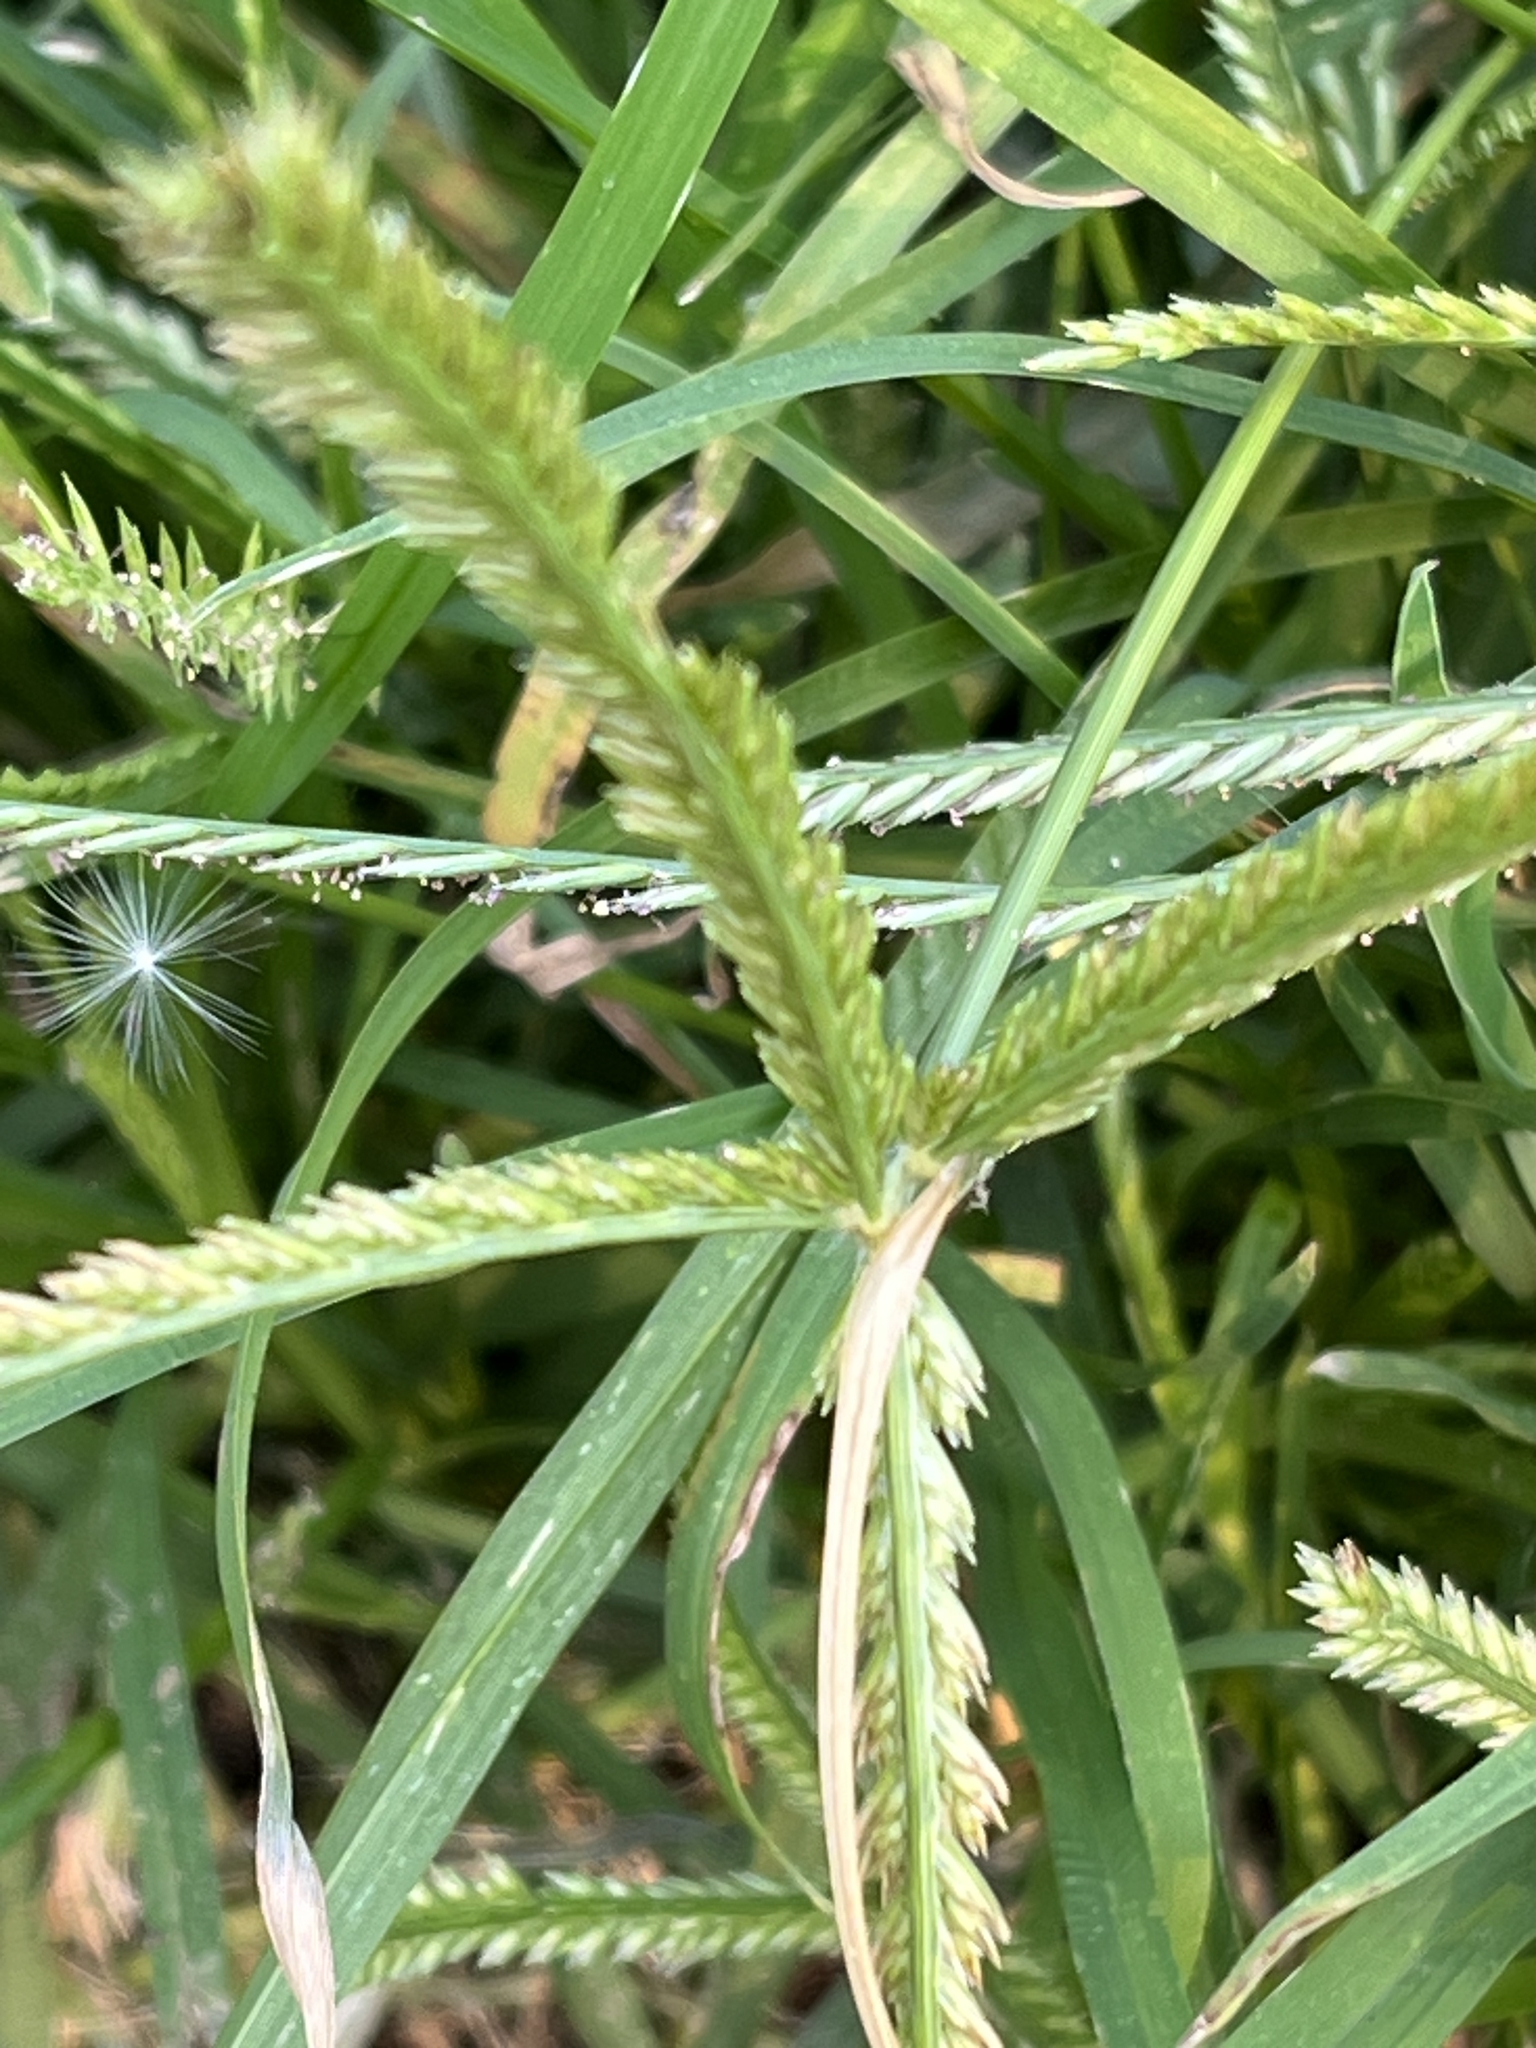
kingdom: Plantae
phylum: Tracheophyta
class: Liliopsida
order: Poales
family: Poaceae
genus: Eleusine
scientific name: Eleusine indica
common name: Yard-grass
